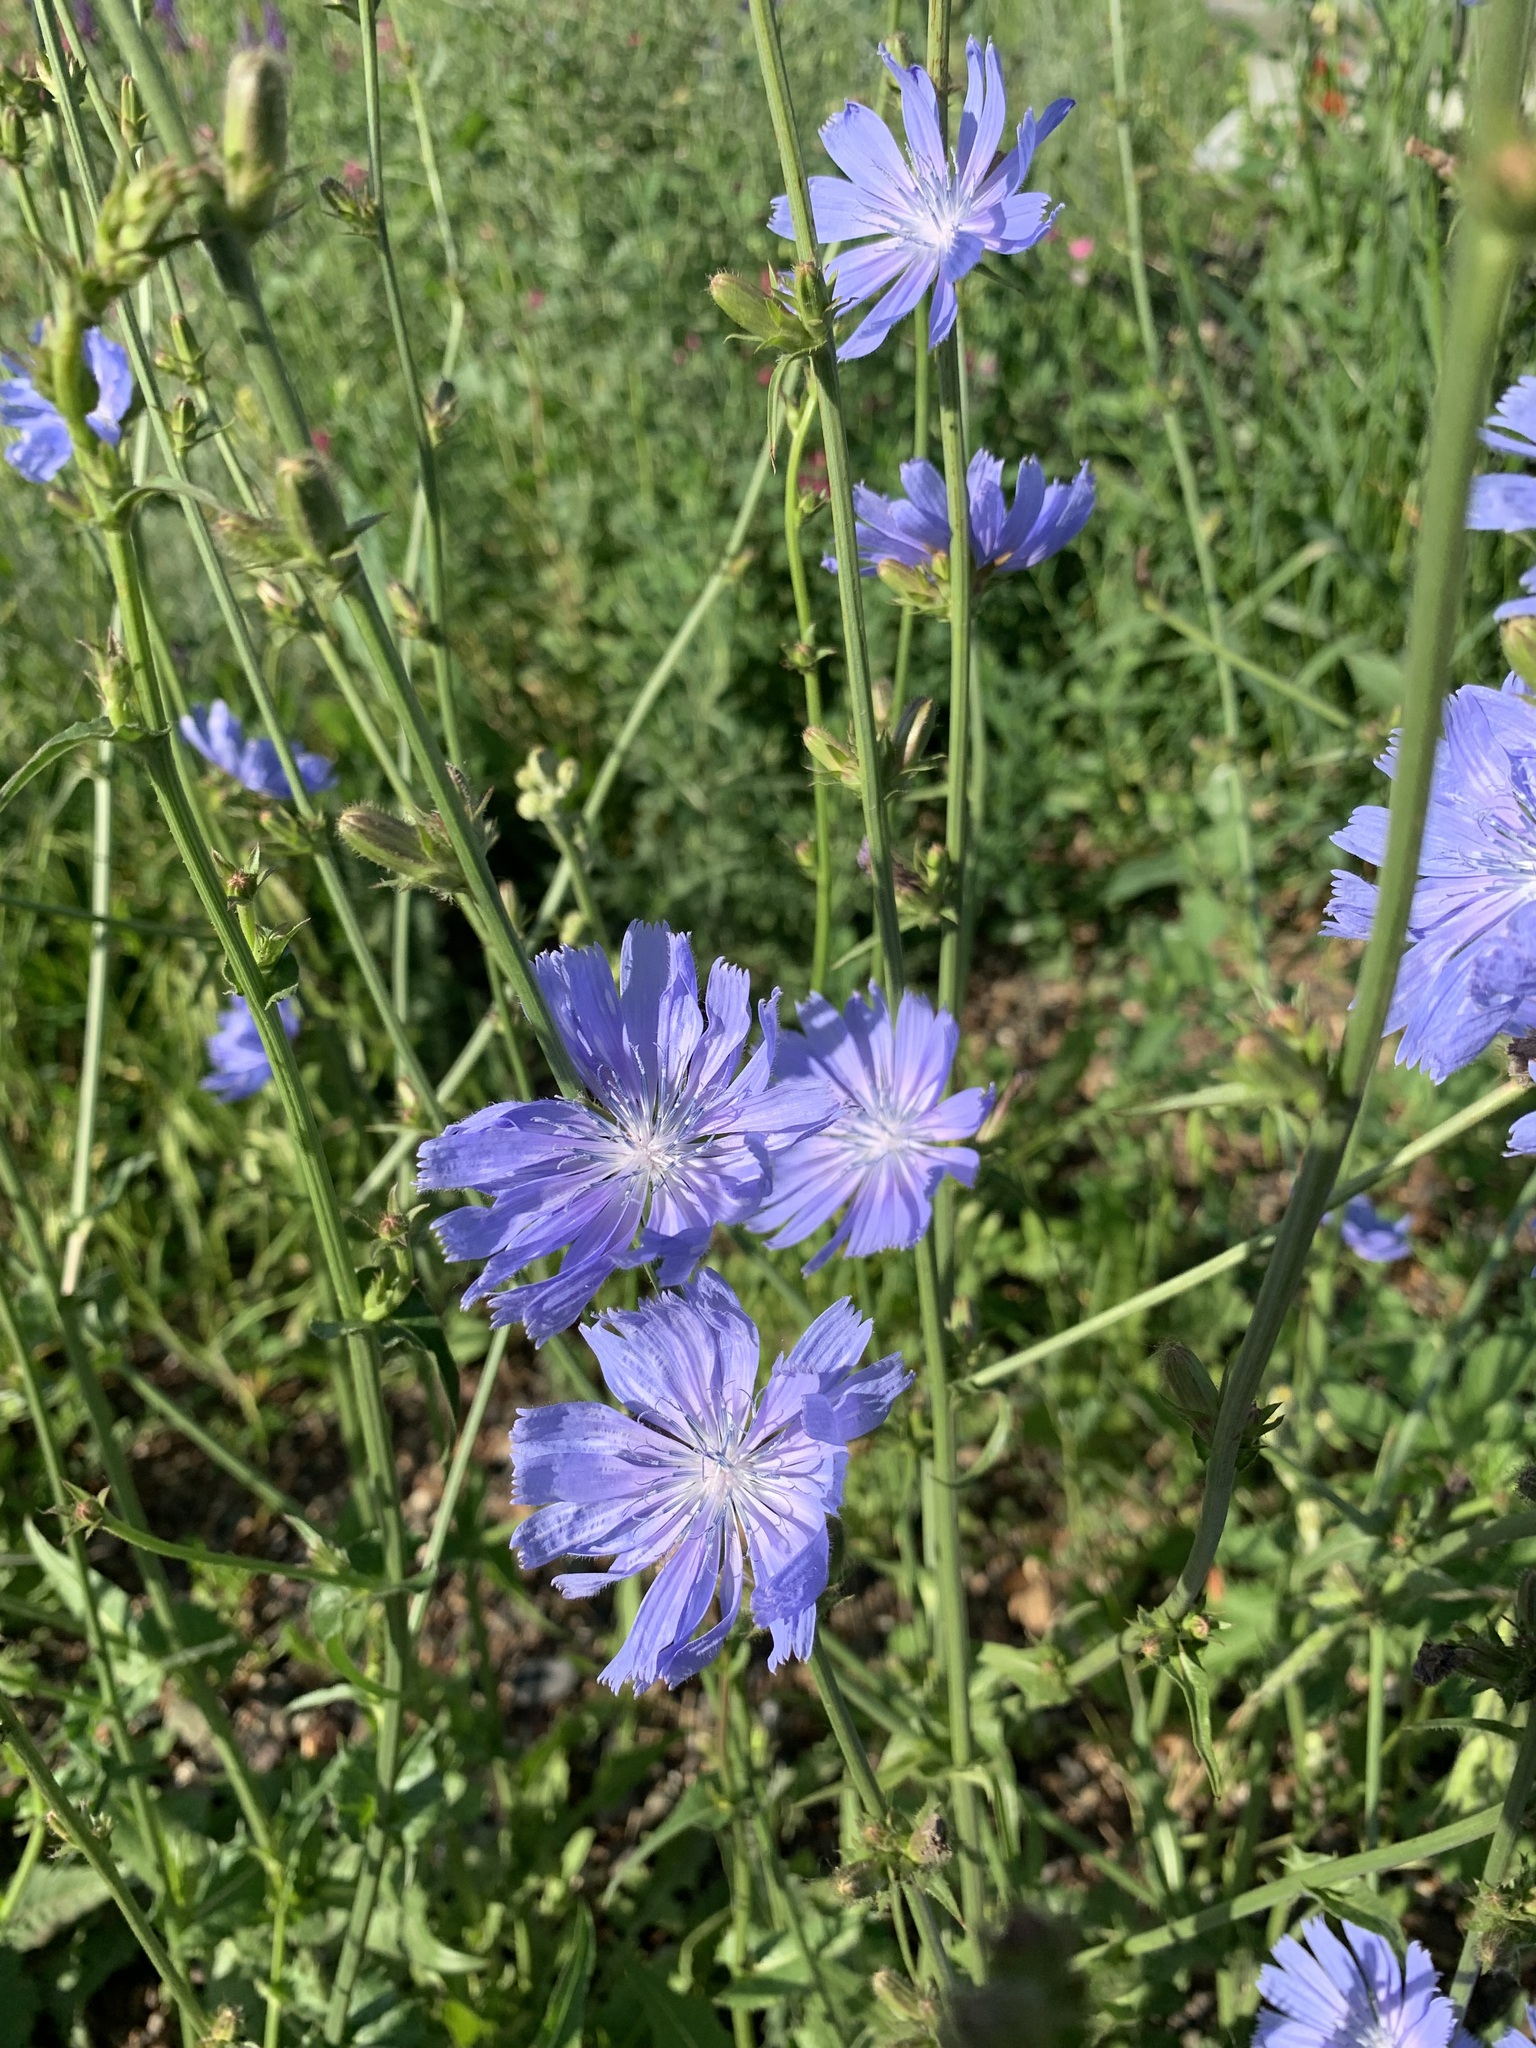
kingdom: Plantae
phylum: Tracheophyta
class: Magnoliopsida
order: Asterales
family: Asteraceae
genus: Cichorium
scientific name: Cichorium intybus
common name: Chicory
